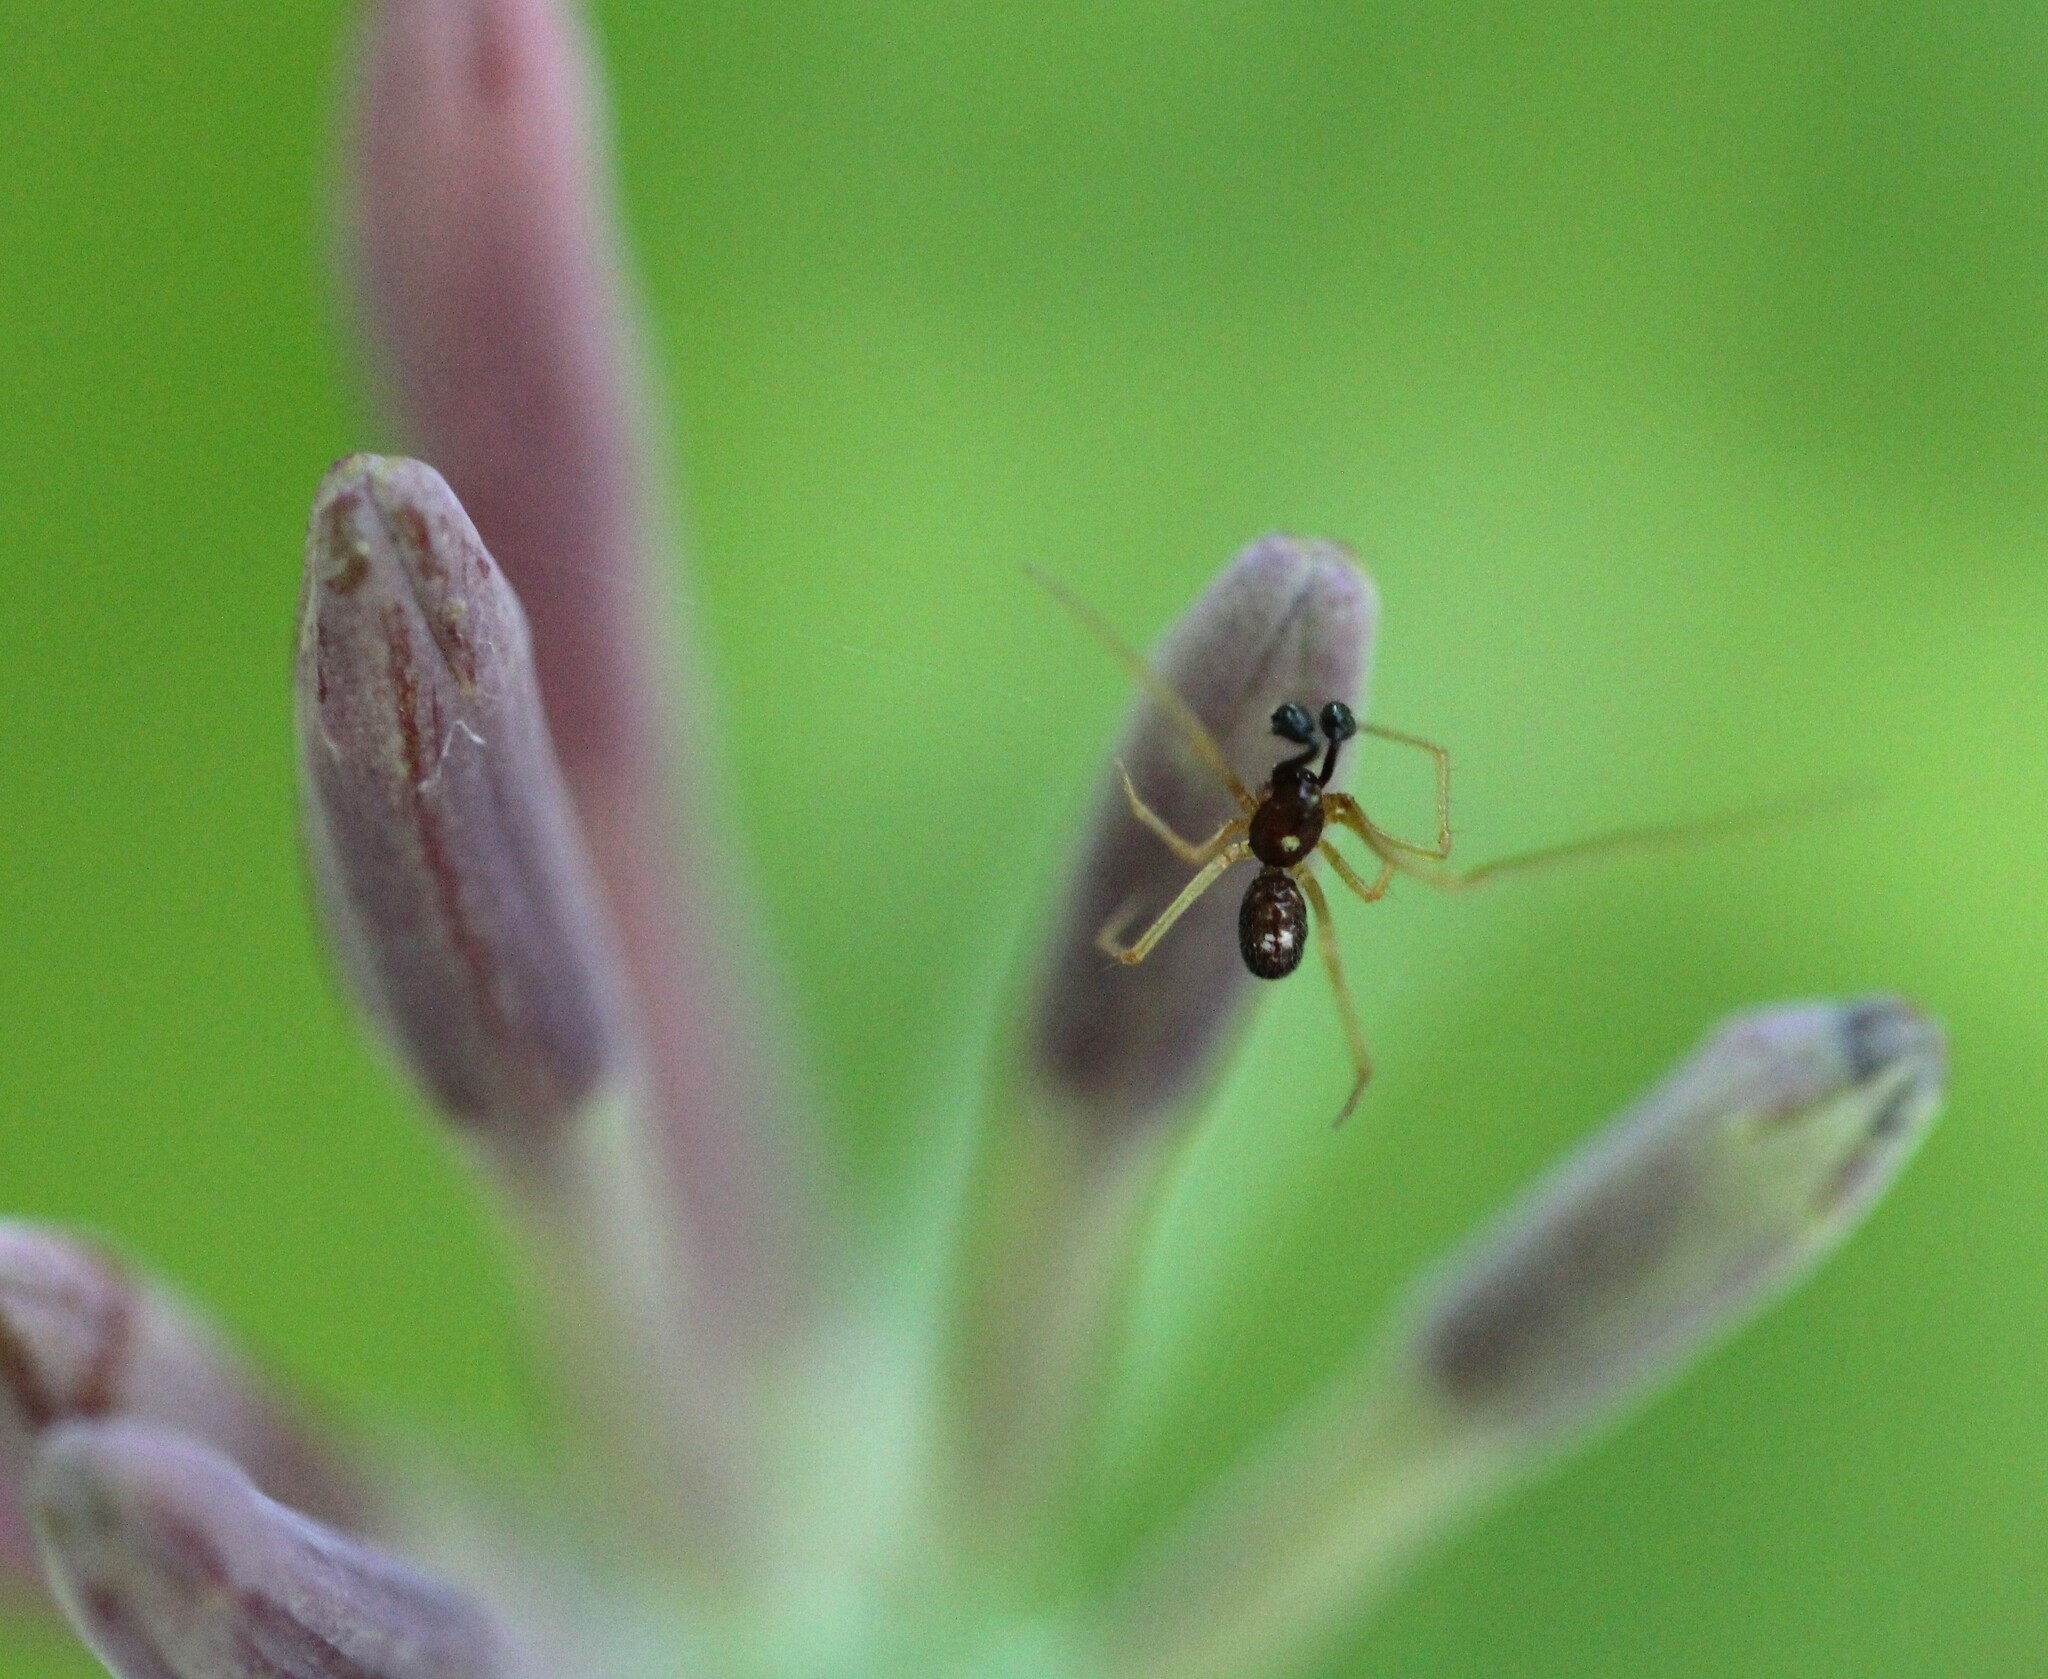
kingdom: Animalia
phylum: Arthropoda
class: Arachnida
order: Araneae
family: Theridiidae
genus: Neottiura
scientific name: Neottiura bimaculata
